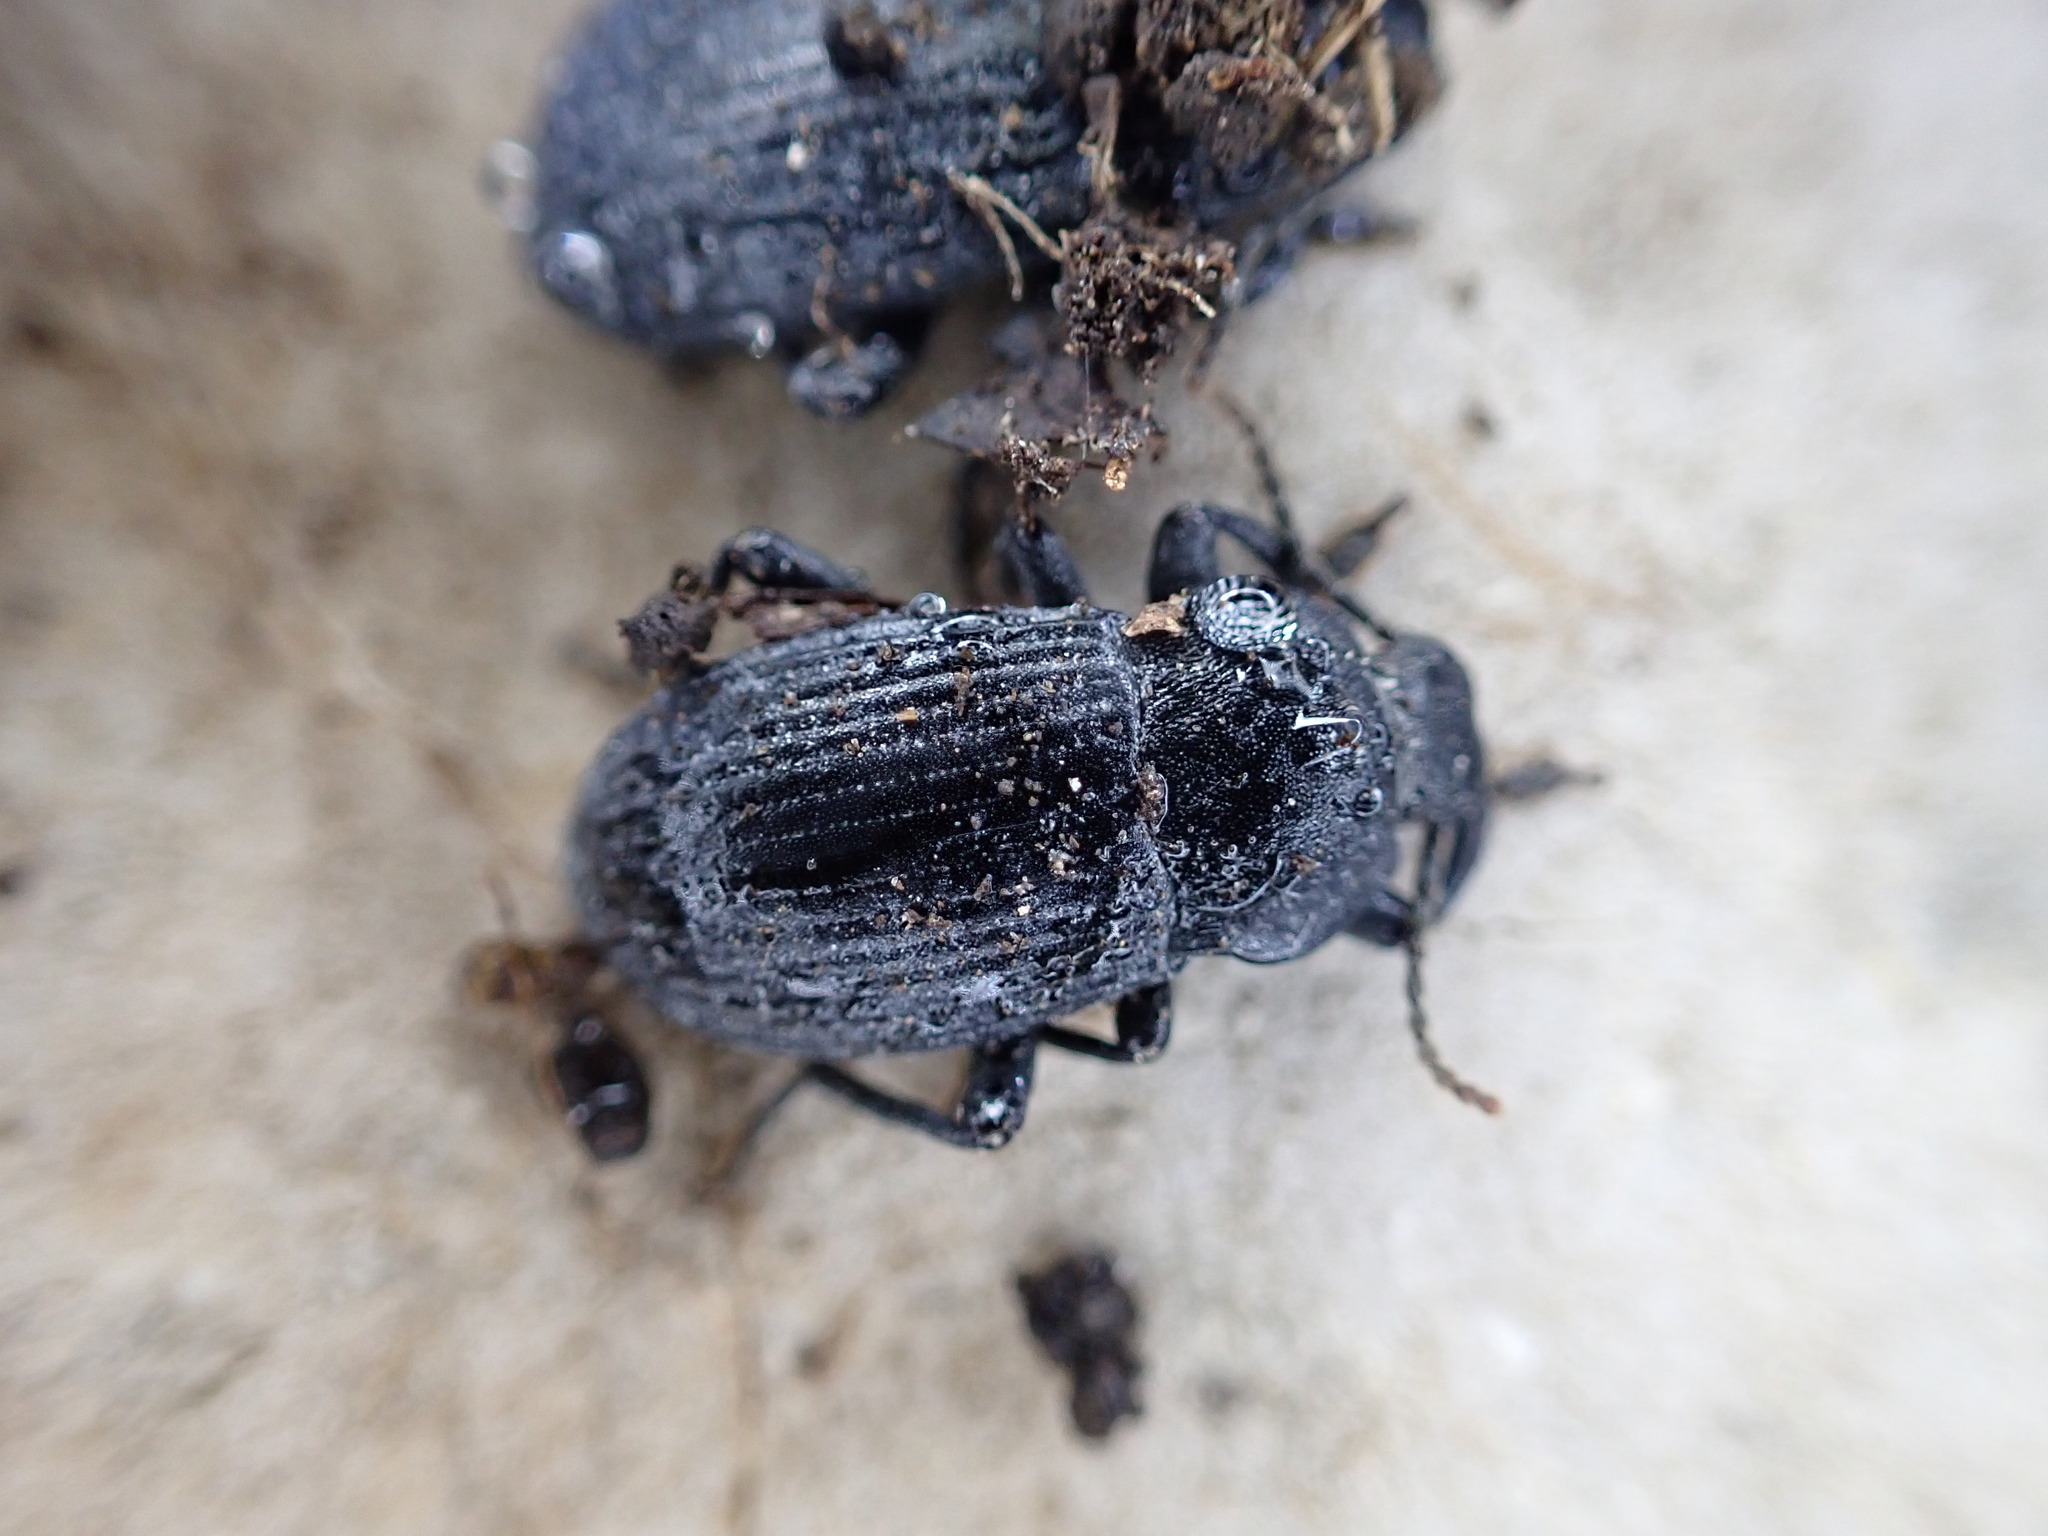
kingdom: Animalia
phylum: Arthropoda
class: Insecta
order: Coleoptera
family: Tenebrionidae
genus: Dendarus
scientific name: Dendarus coarcticollis
